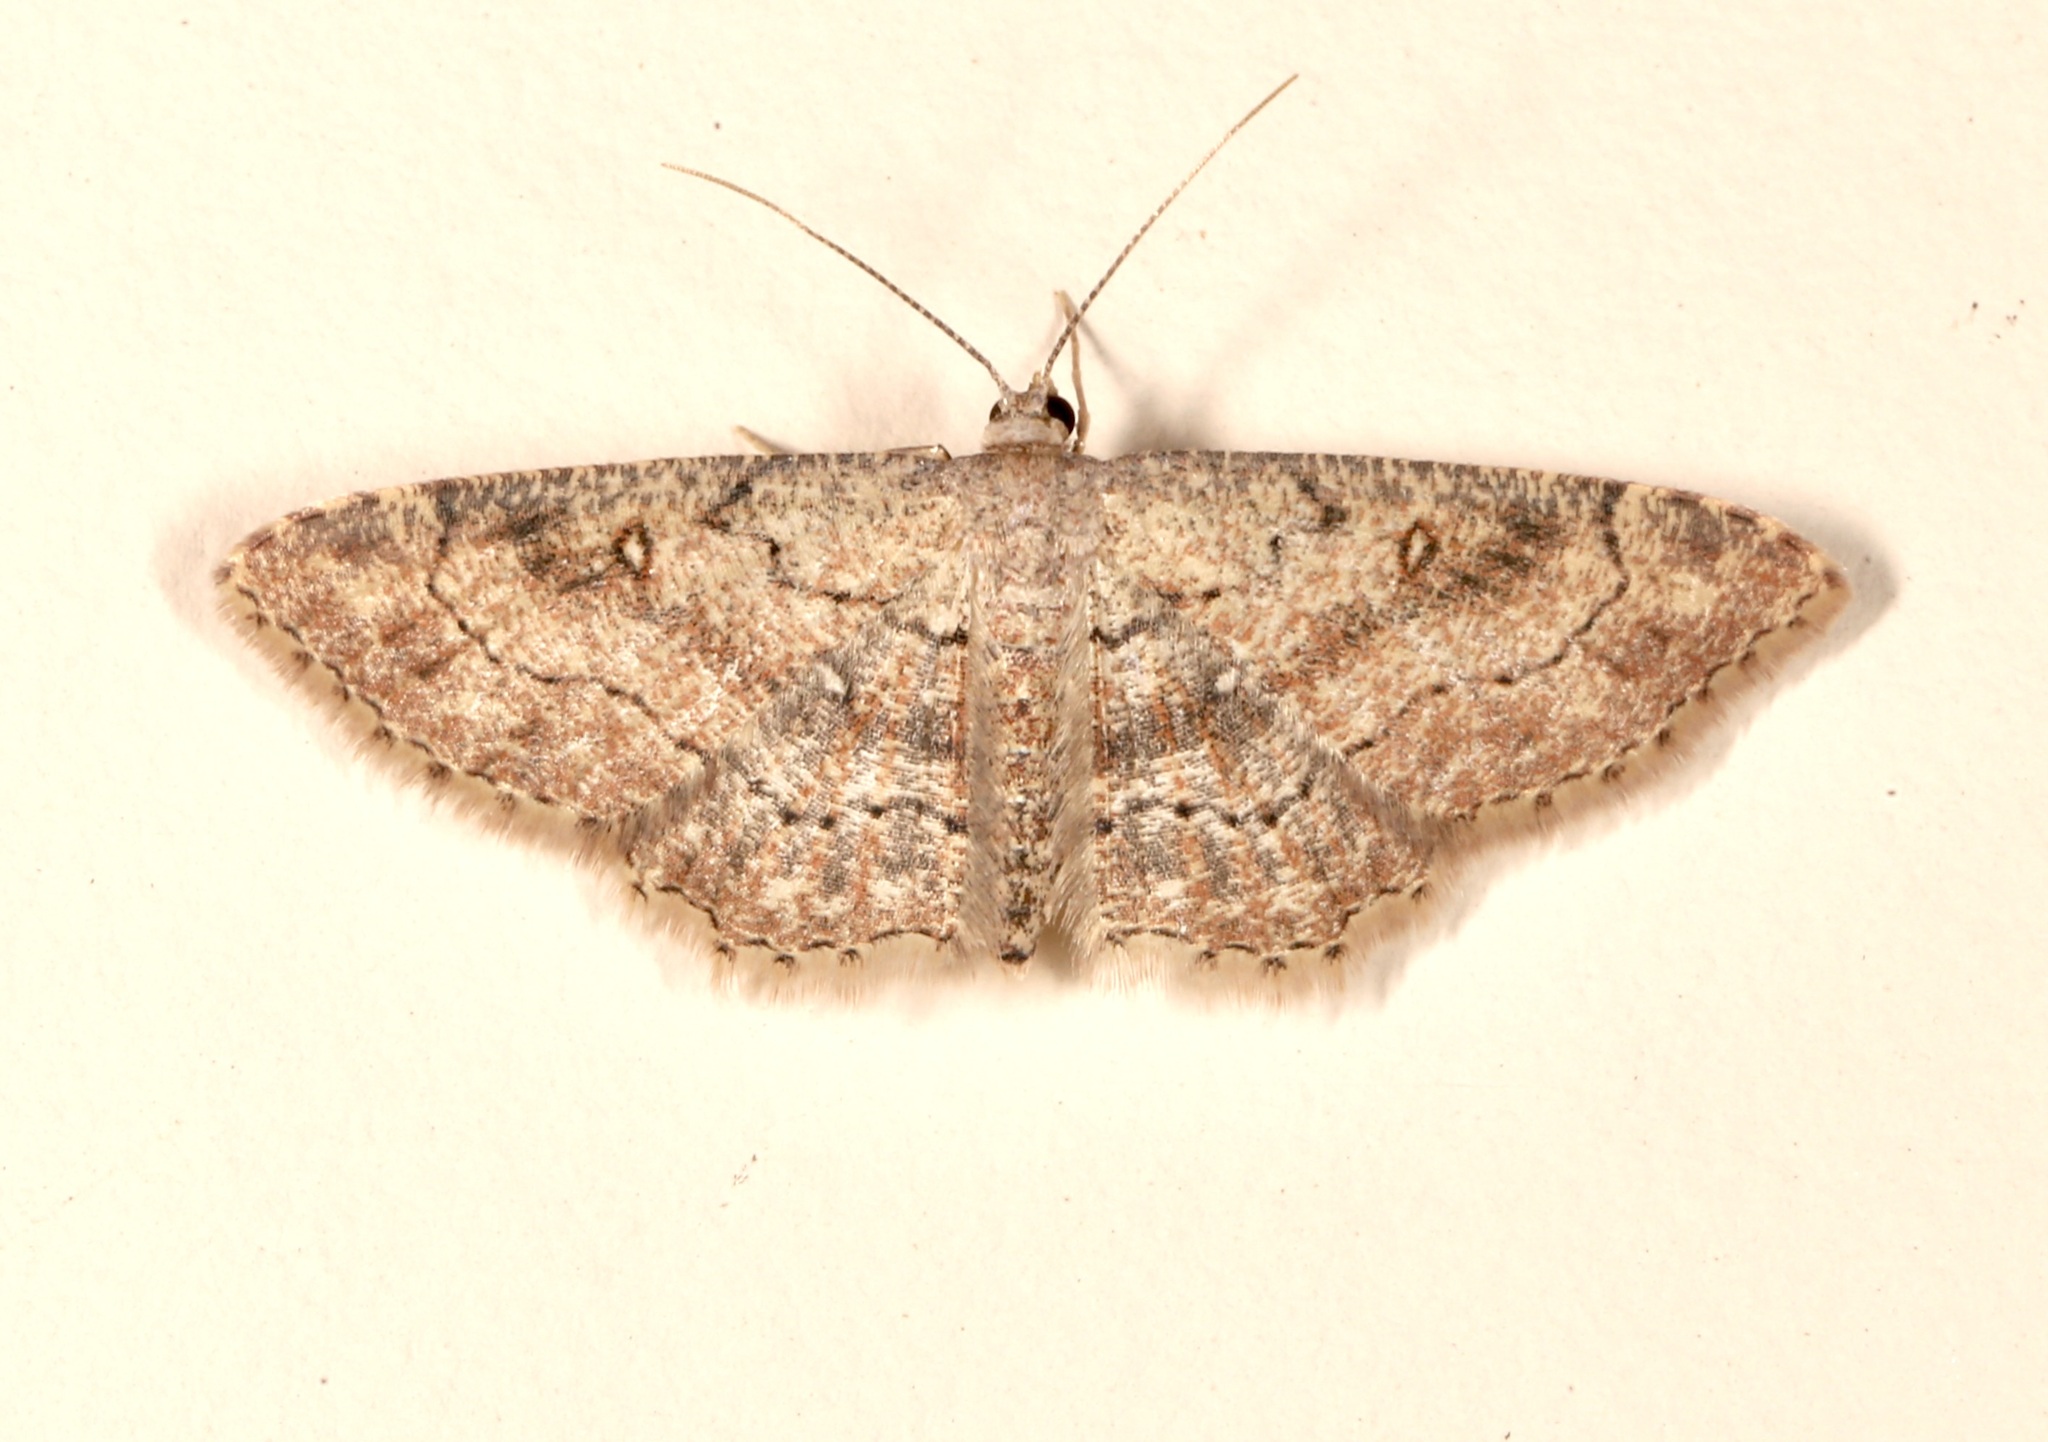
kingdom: Animalia
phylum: Arthropoda
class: Insecta
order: Lepidoptera
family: Geometridae
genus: Cyclophora
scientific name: Cyclophora nanaria
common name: Cankerworm
